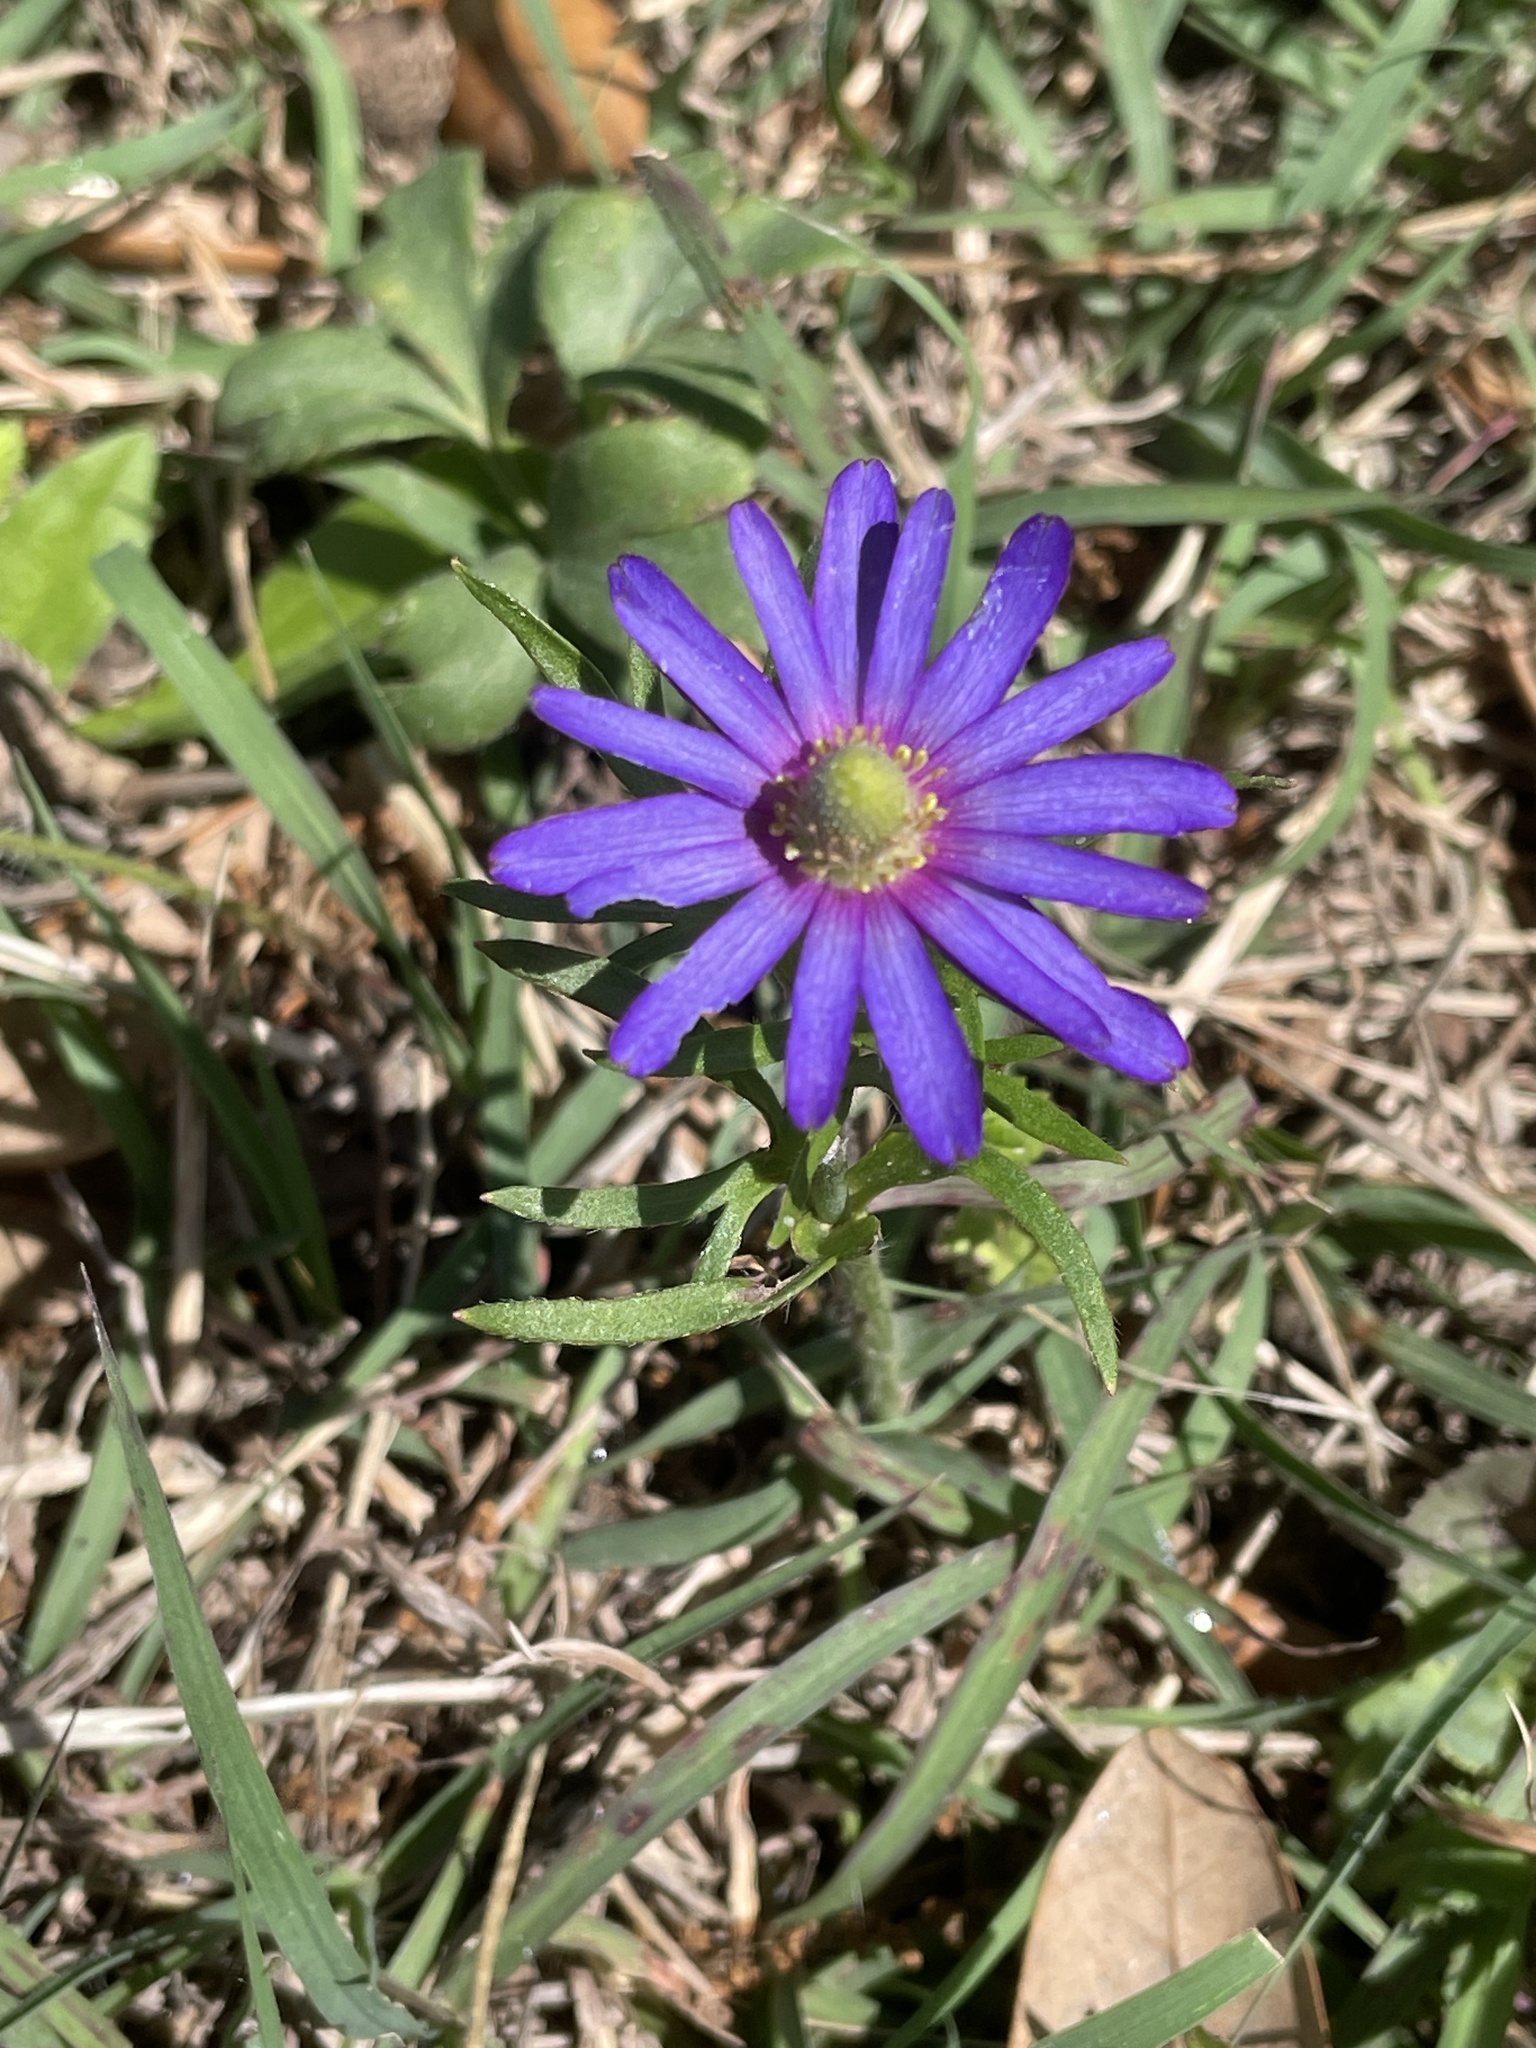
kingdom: Plantae
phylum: Tracheophyta
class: Magnoliopsida
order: Ranunculales
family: Ranunculaceae
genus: Anemone
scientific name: Anemone berlandieri
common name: Ten-petal anemone
